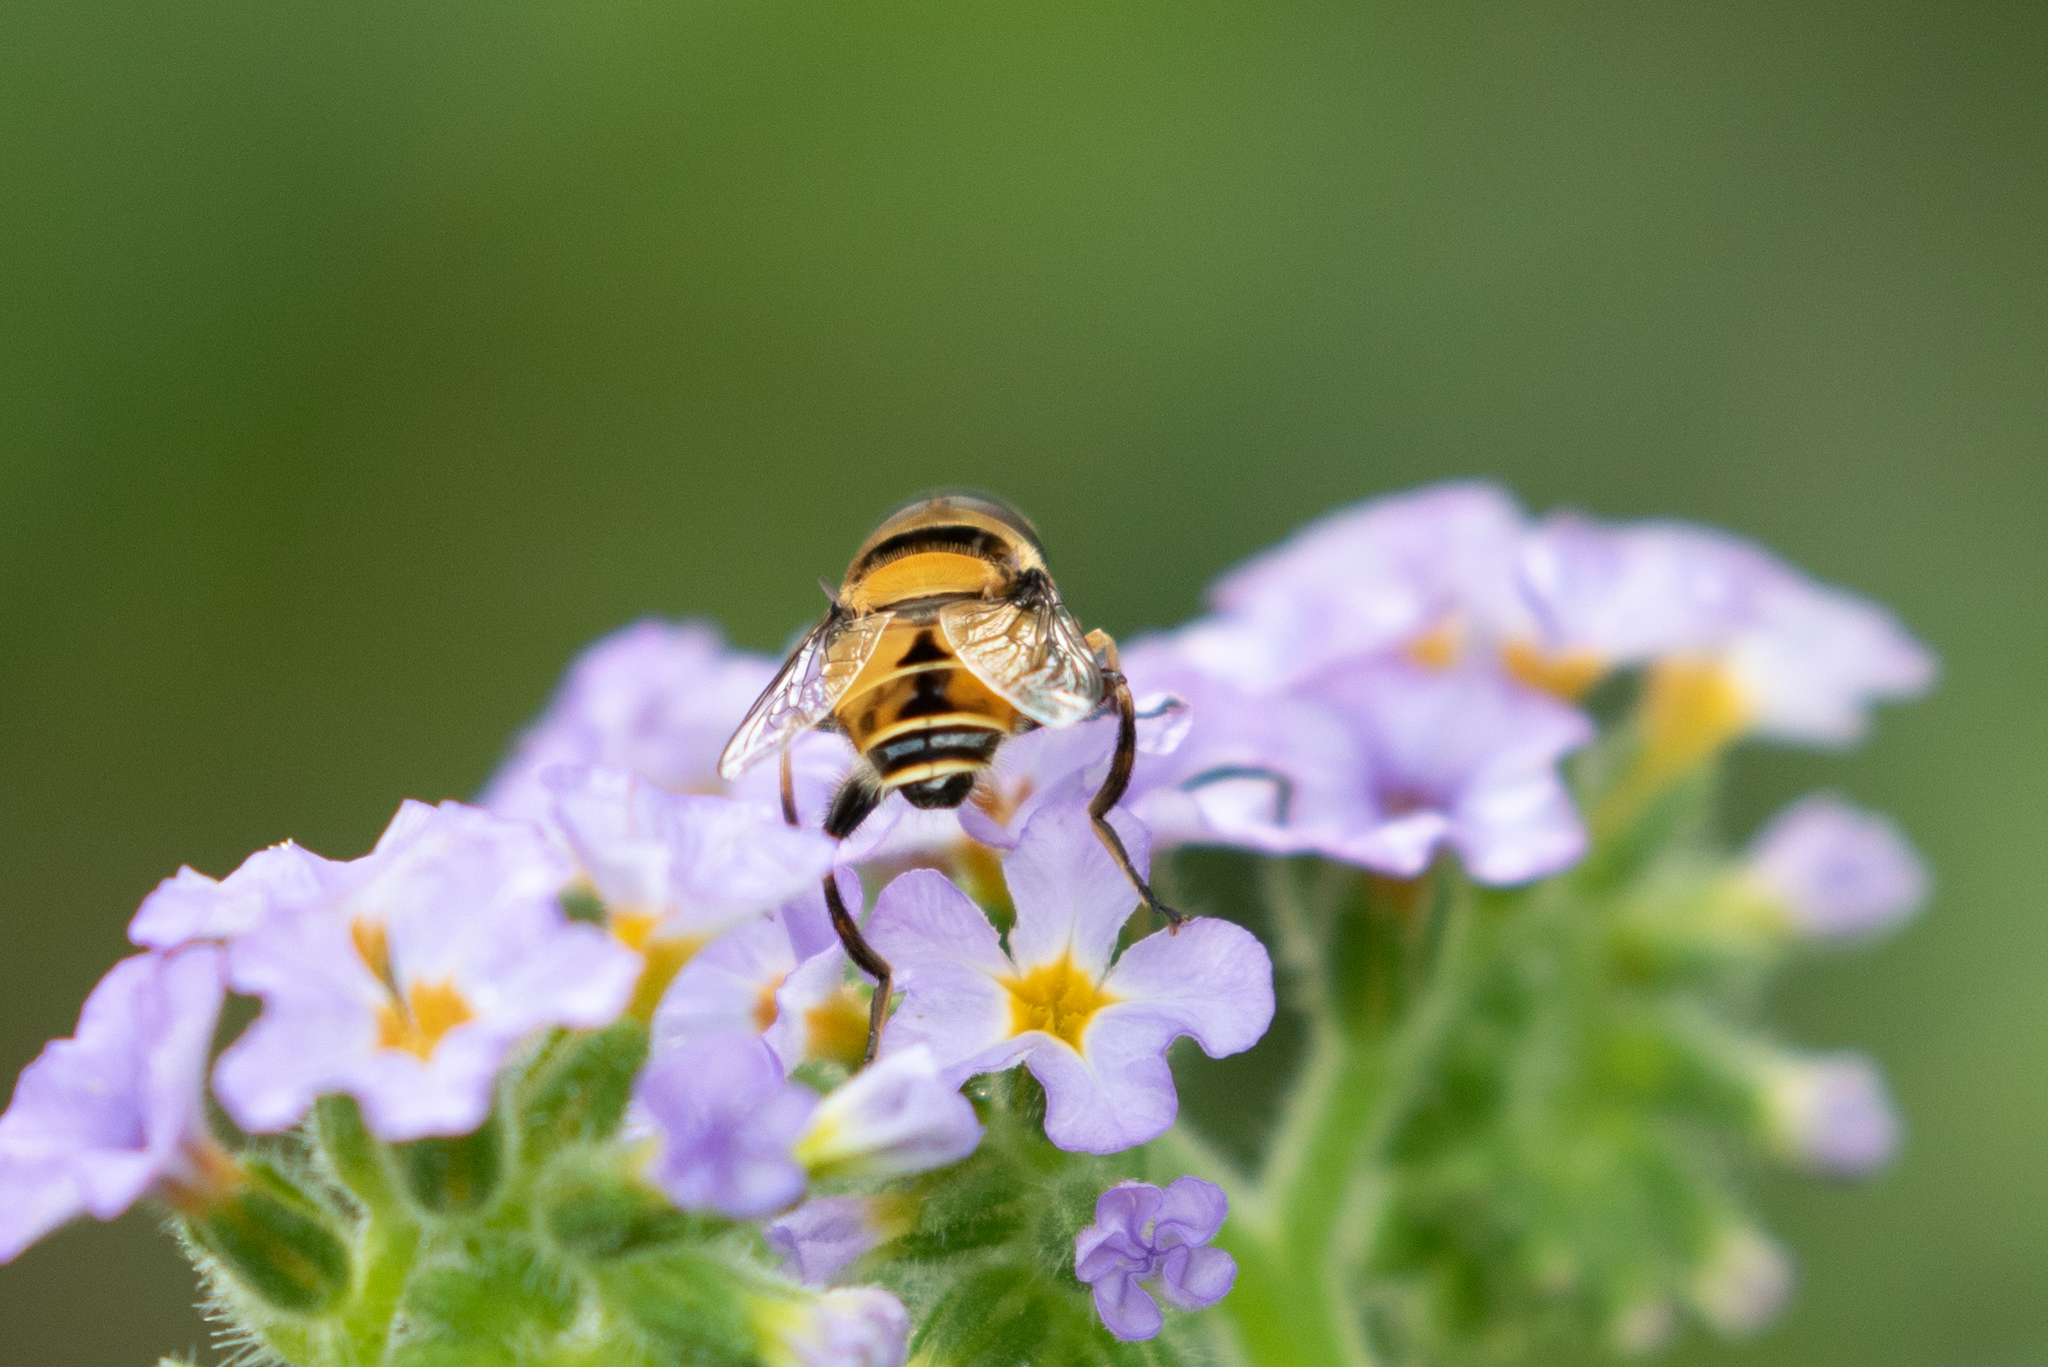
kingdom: Animalia
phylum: Arthropoda
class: Insecta
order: Diptera
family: Syrphidae
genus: Palpada
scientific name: Palpada pusilla
